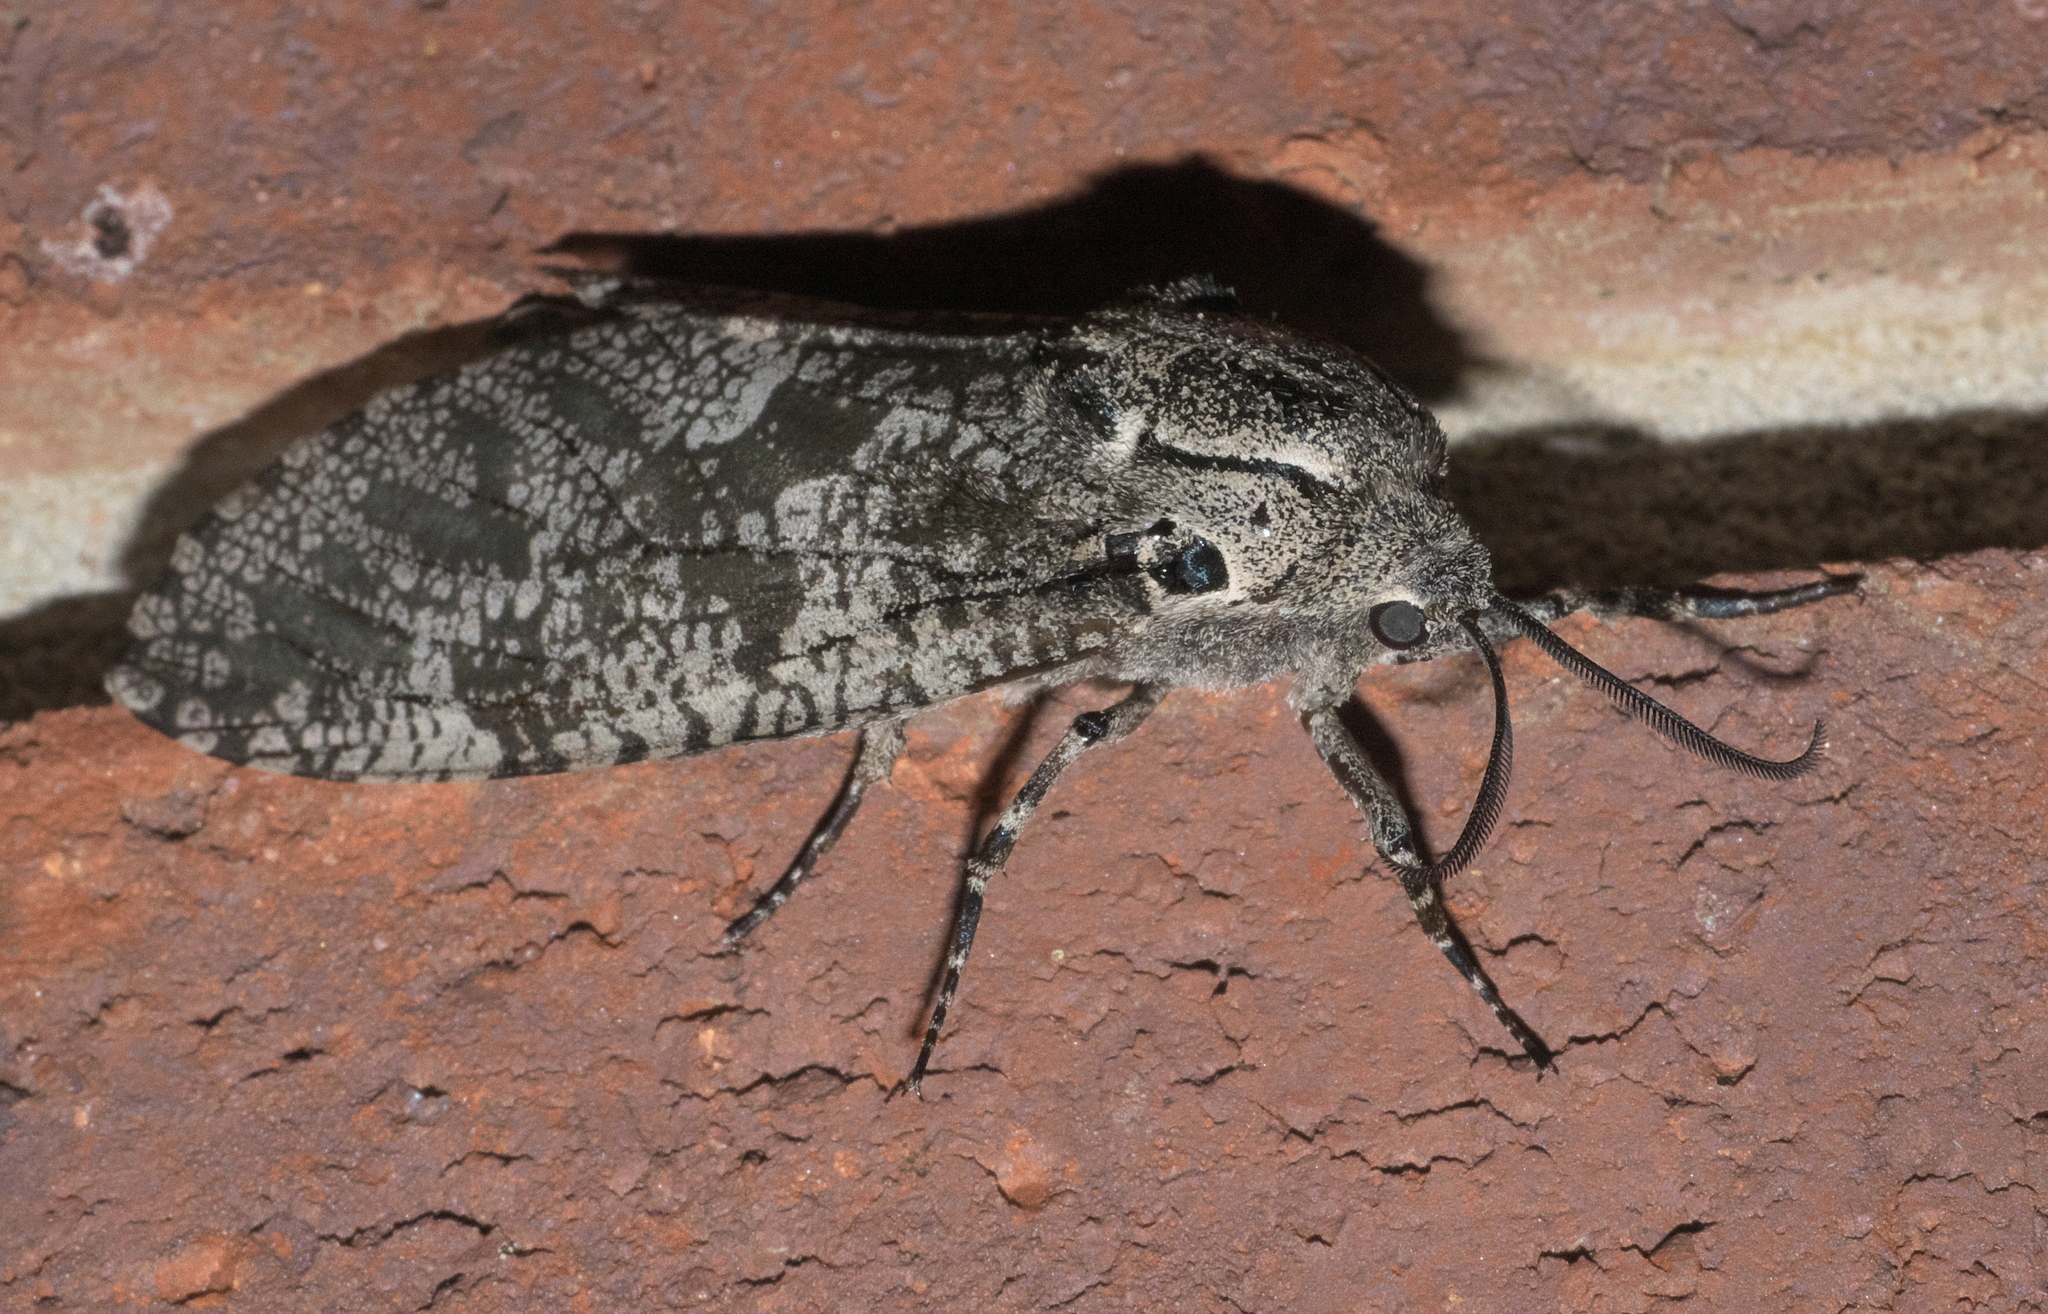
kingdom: Animalia
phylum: Arthropoda
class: Insecta
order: Lepidoptera
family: Cossidae
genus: Prionoxystus
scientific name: Prionoxystus robiniae
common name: Carpenterworm
